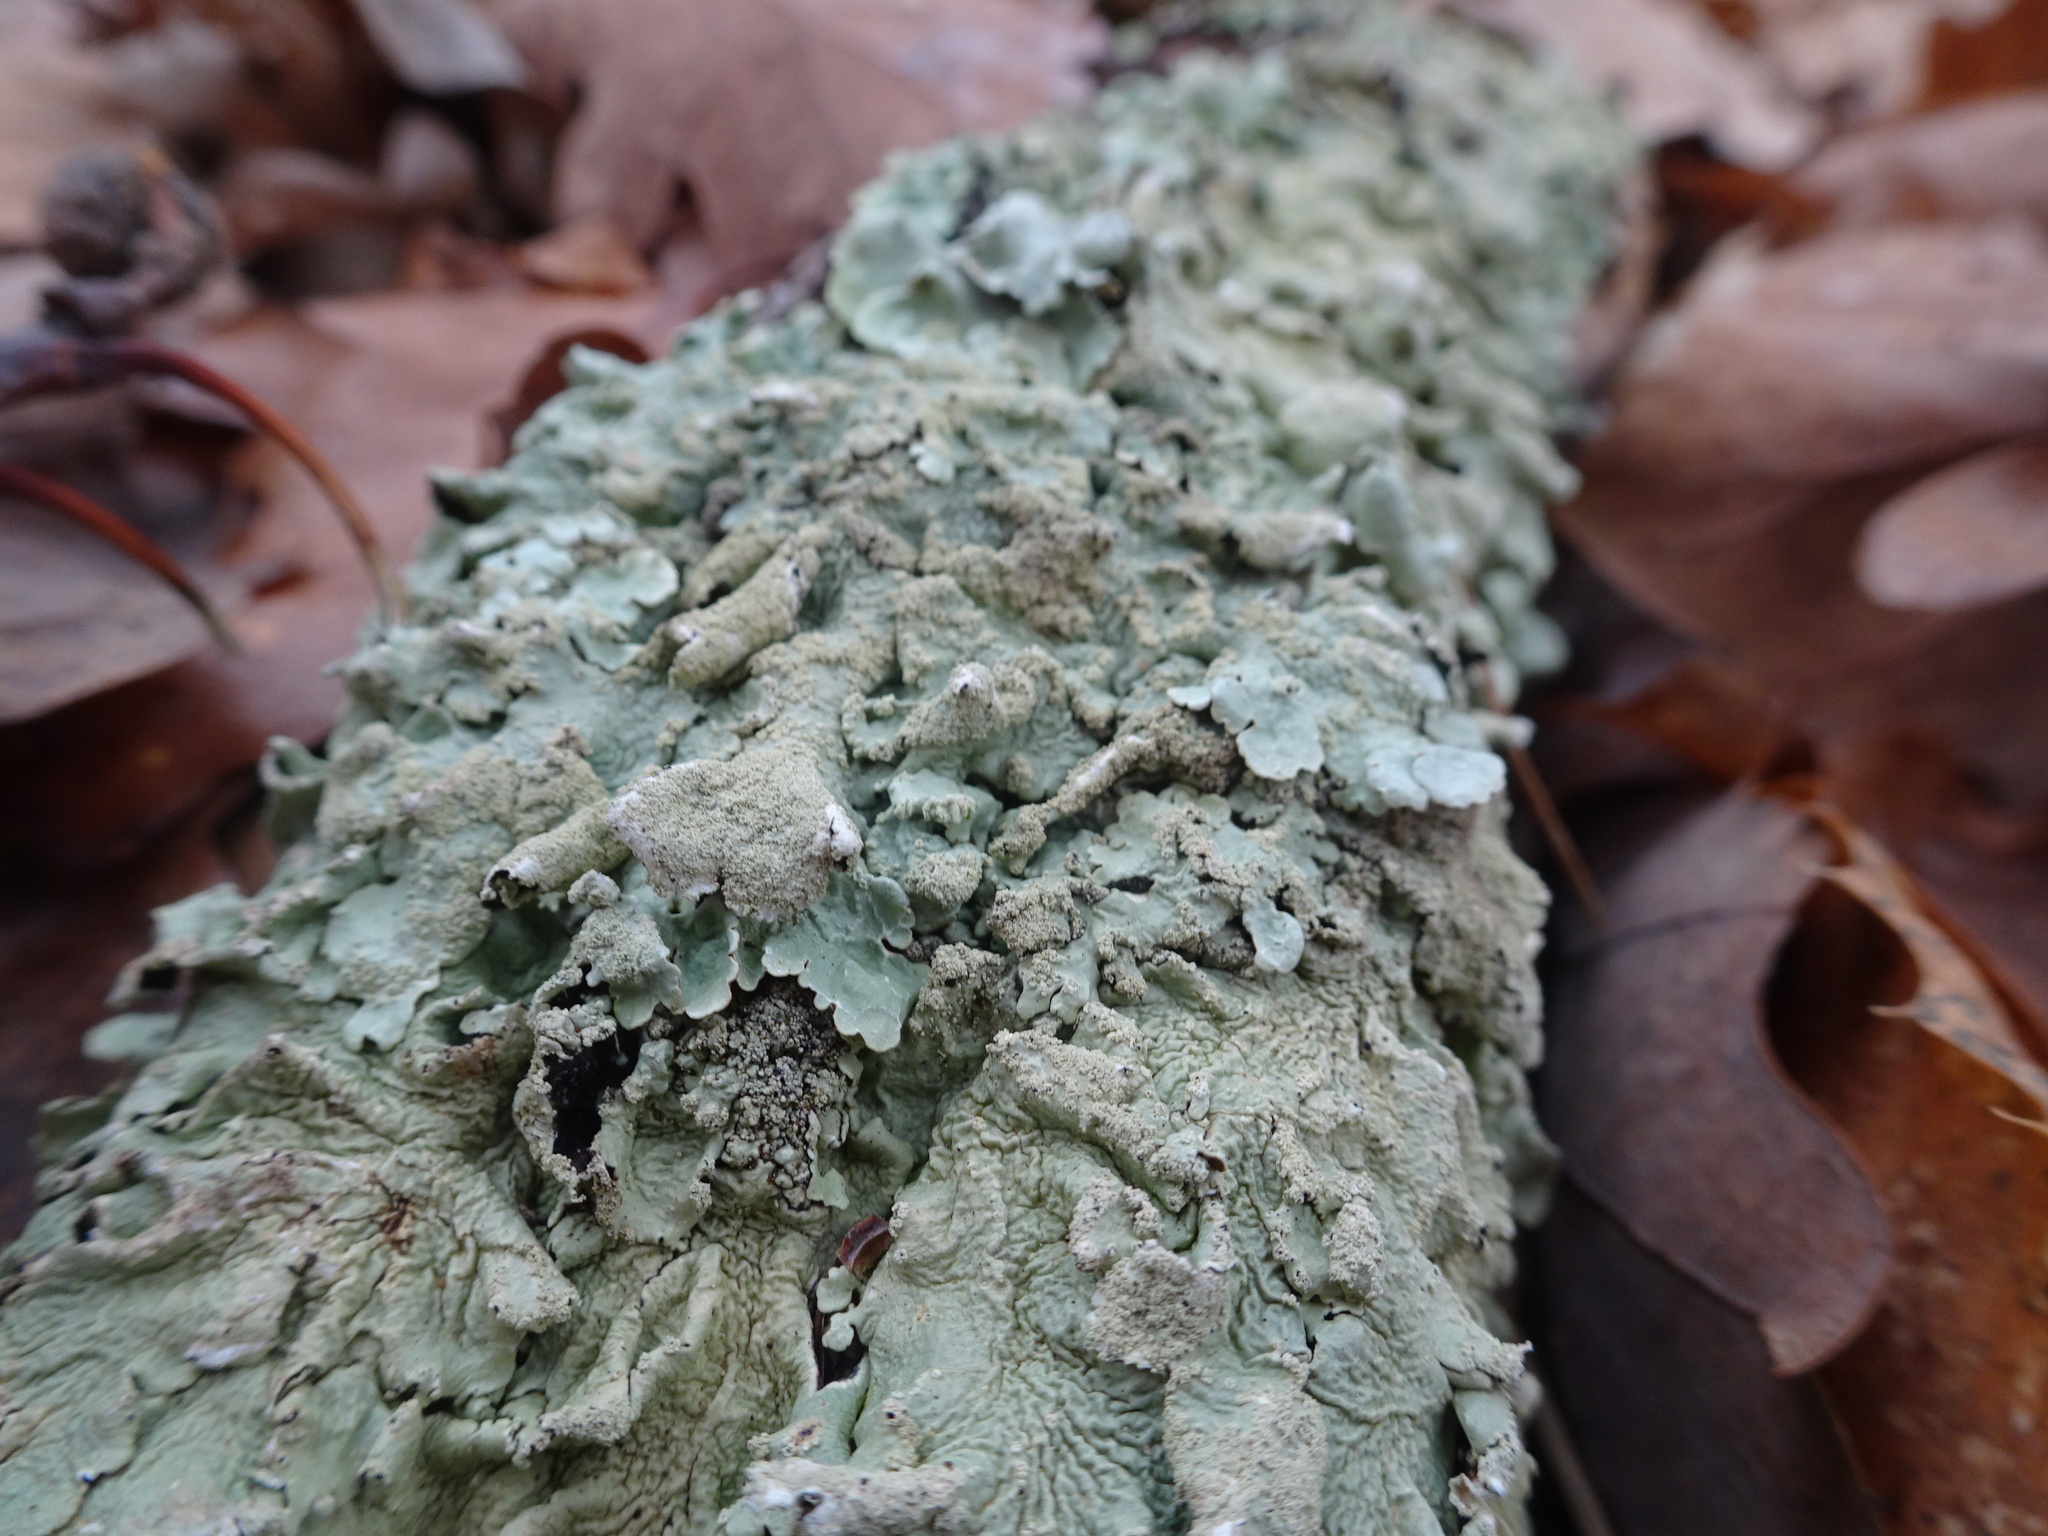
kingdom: Fungi
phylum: Ascomycota
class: Lecanoromycetes
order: Lecanorales
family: Parmeliaceae
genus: Flavoparmelia
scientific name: Flavoparmelia caperata
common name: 40-mile per hour lichen
